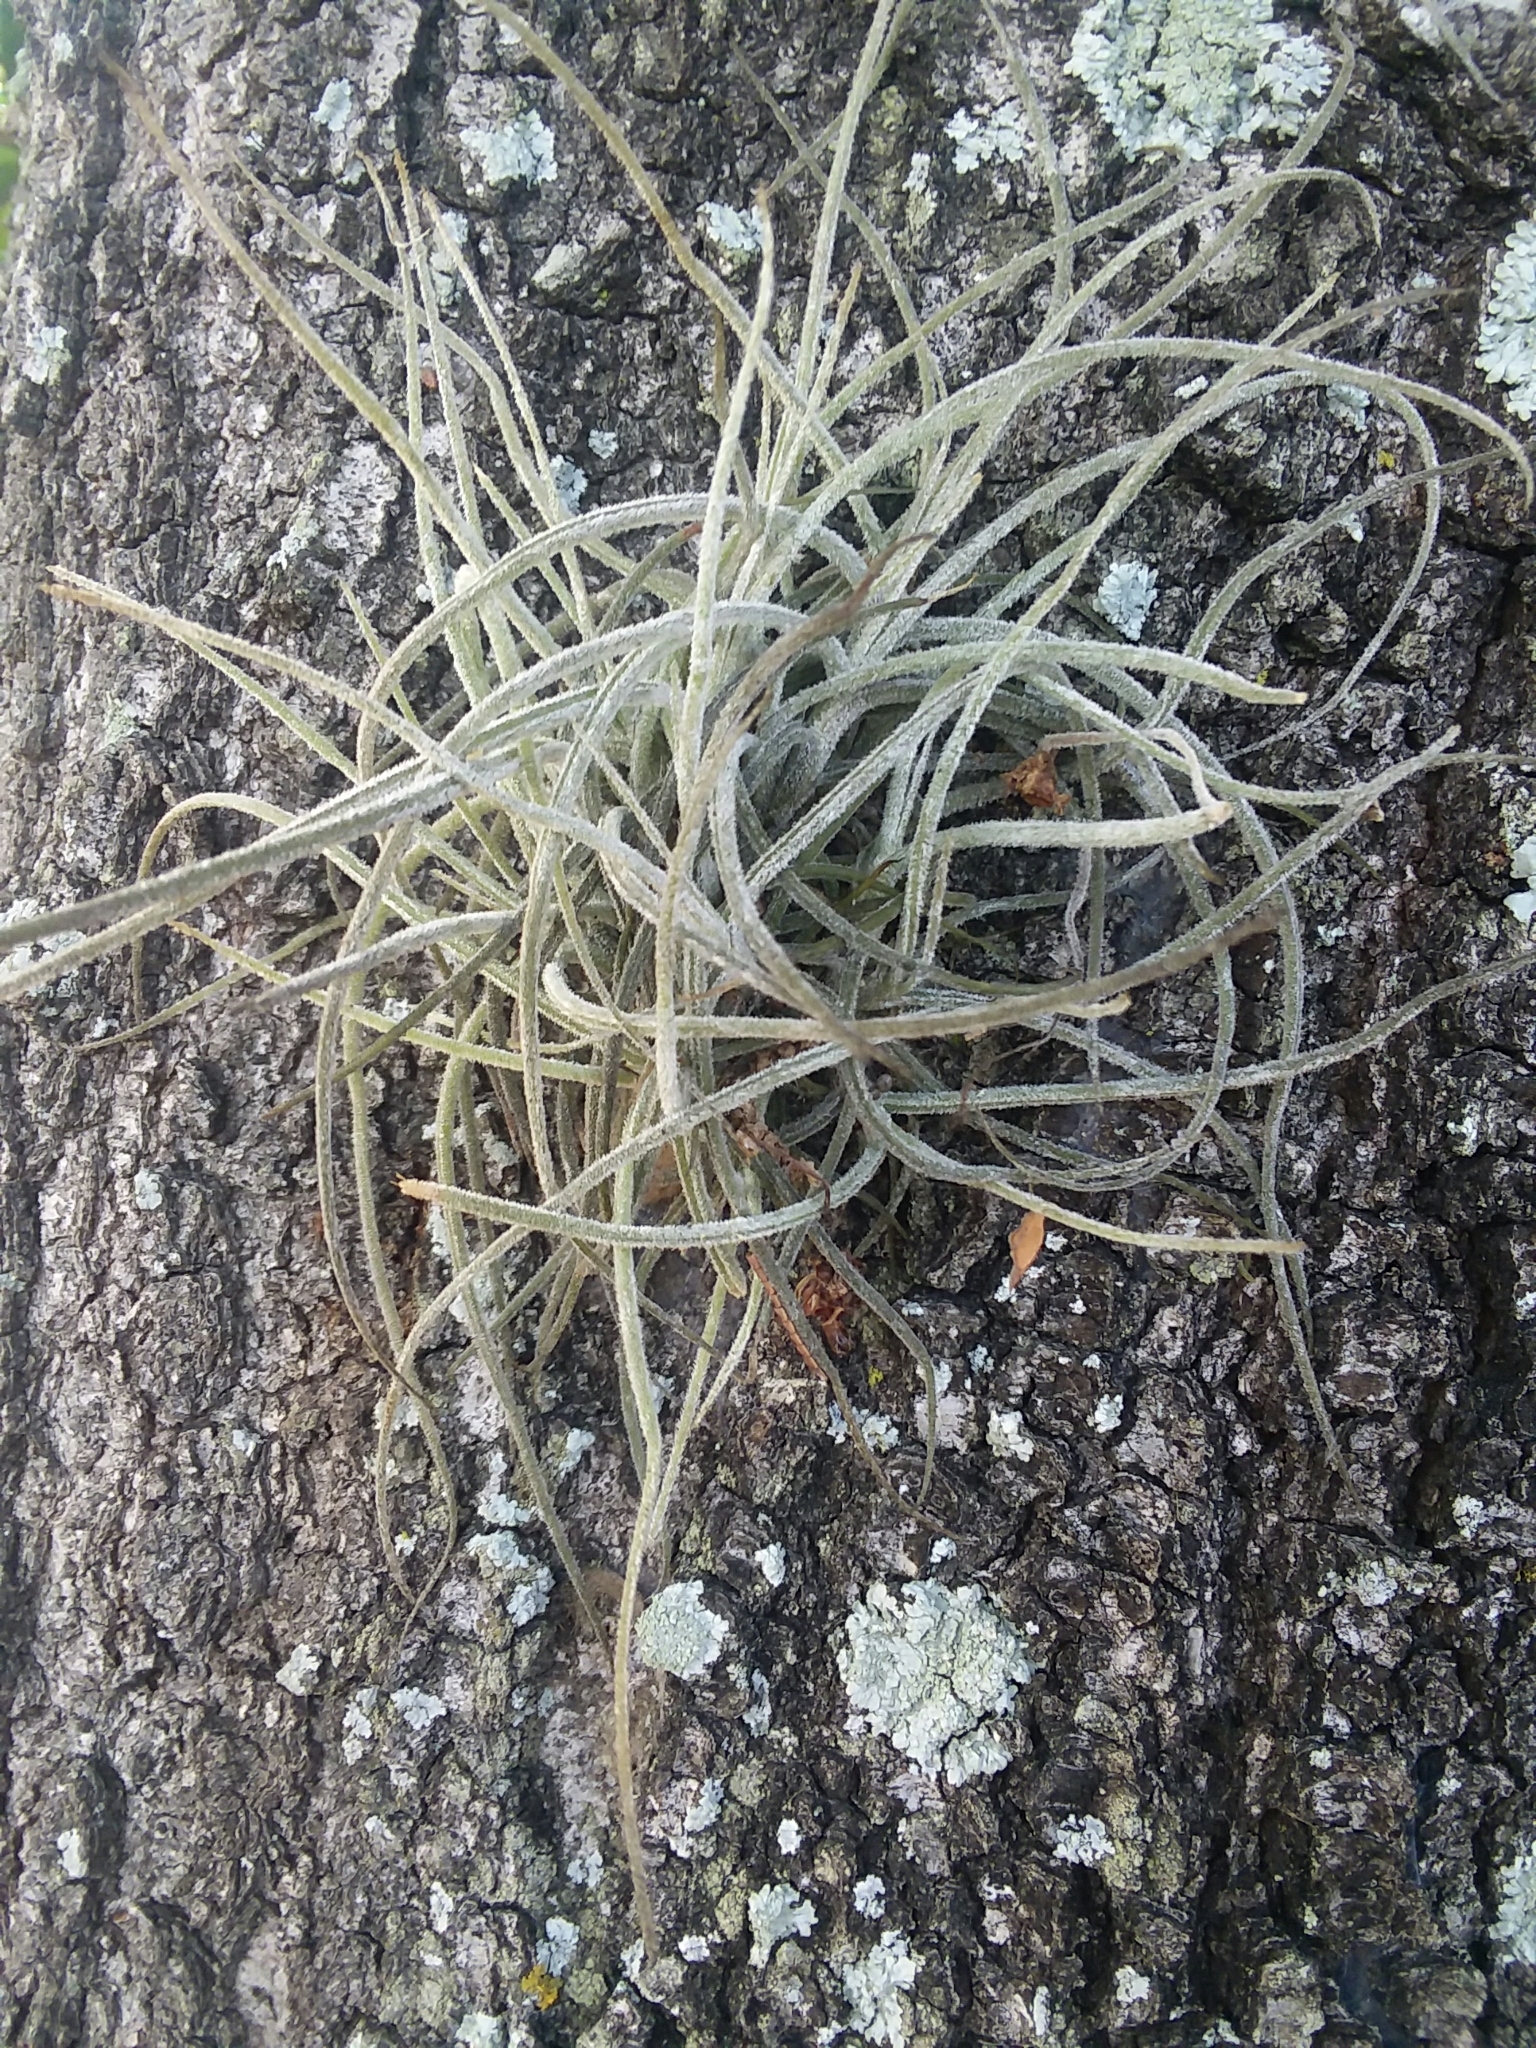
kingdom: Plantae
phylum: Tracheophyta
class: Liliopsida
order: Poales
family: Bromeliaceae
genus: Tillandsia
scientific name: Tillandsia recurvata
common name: Small ballmoss
